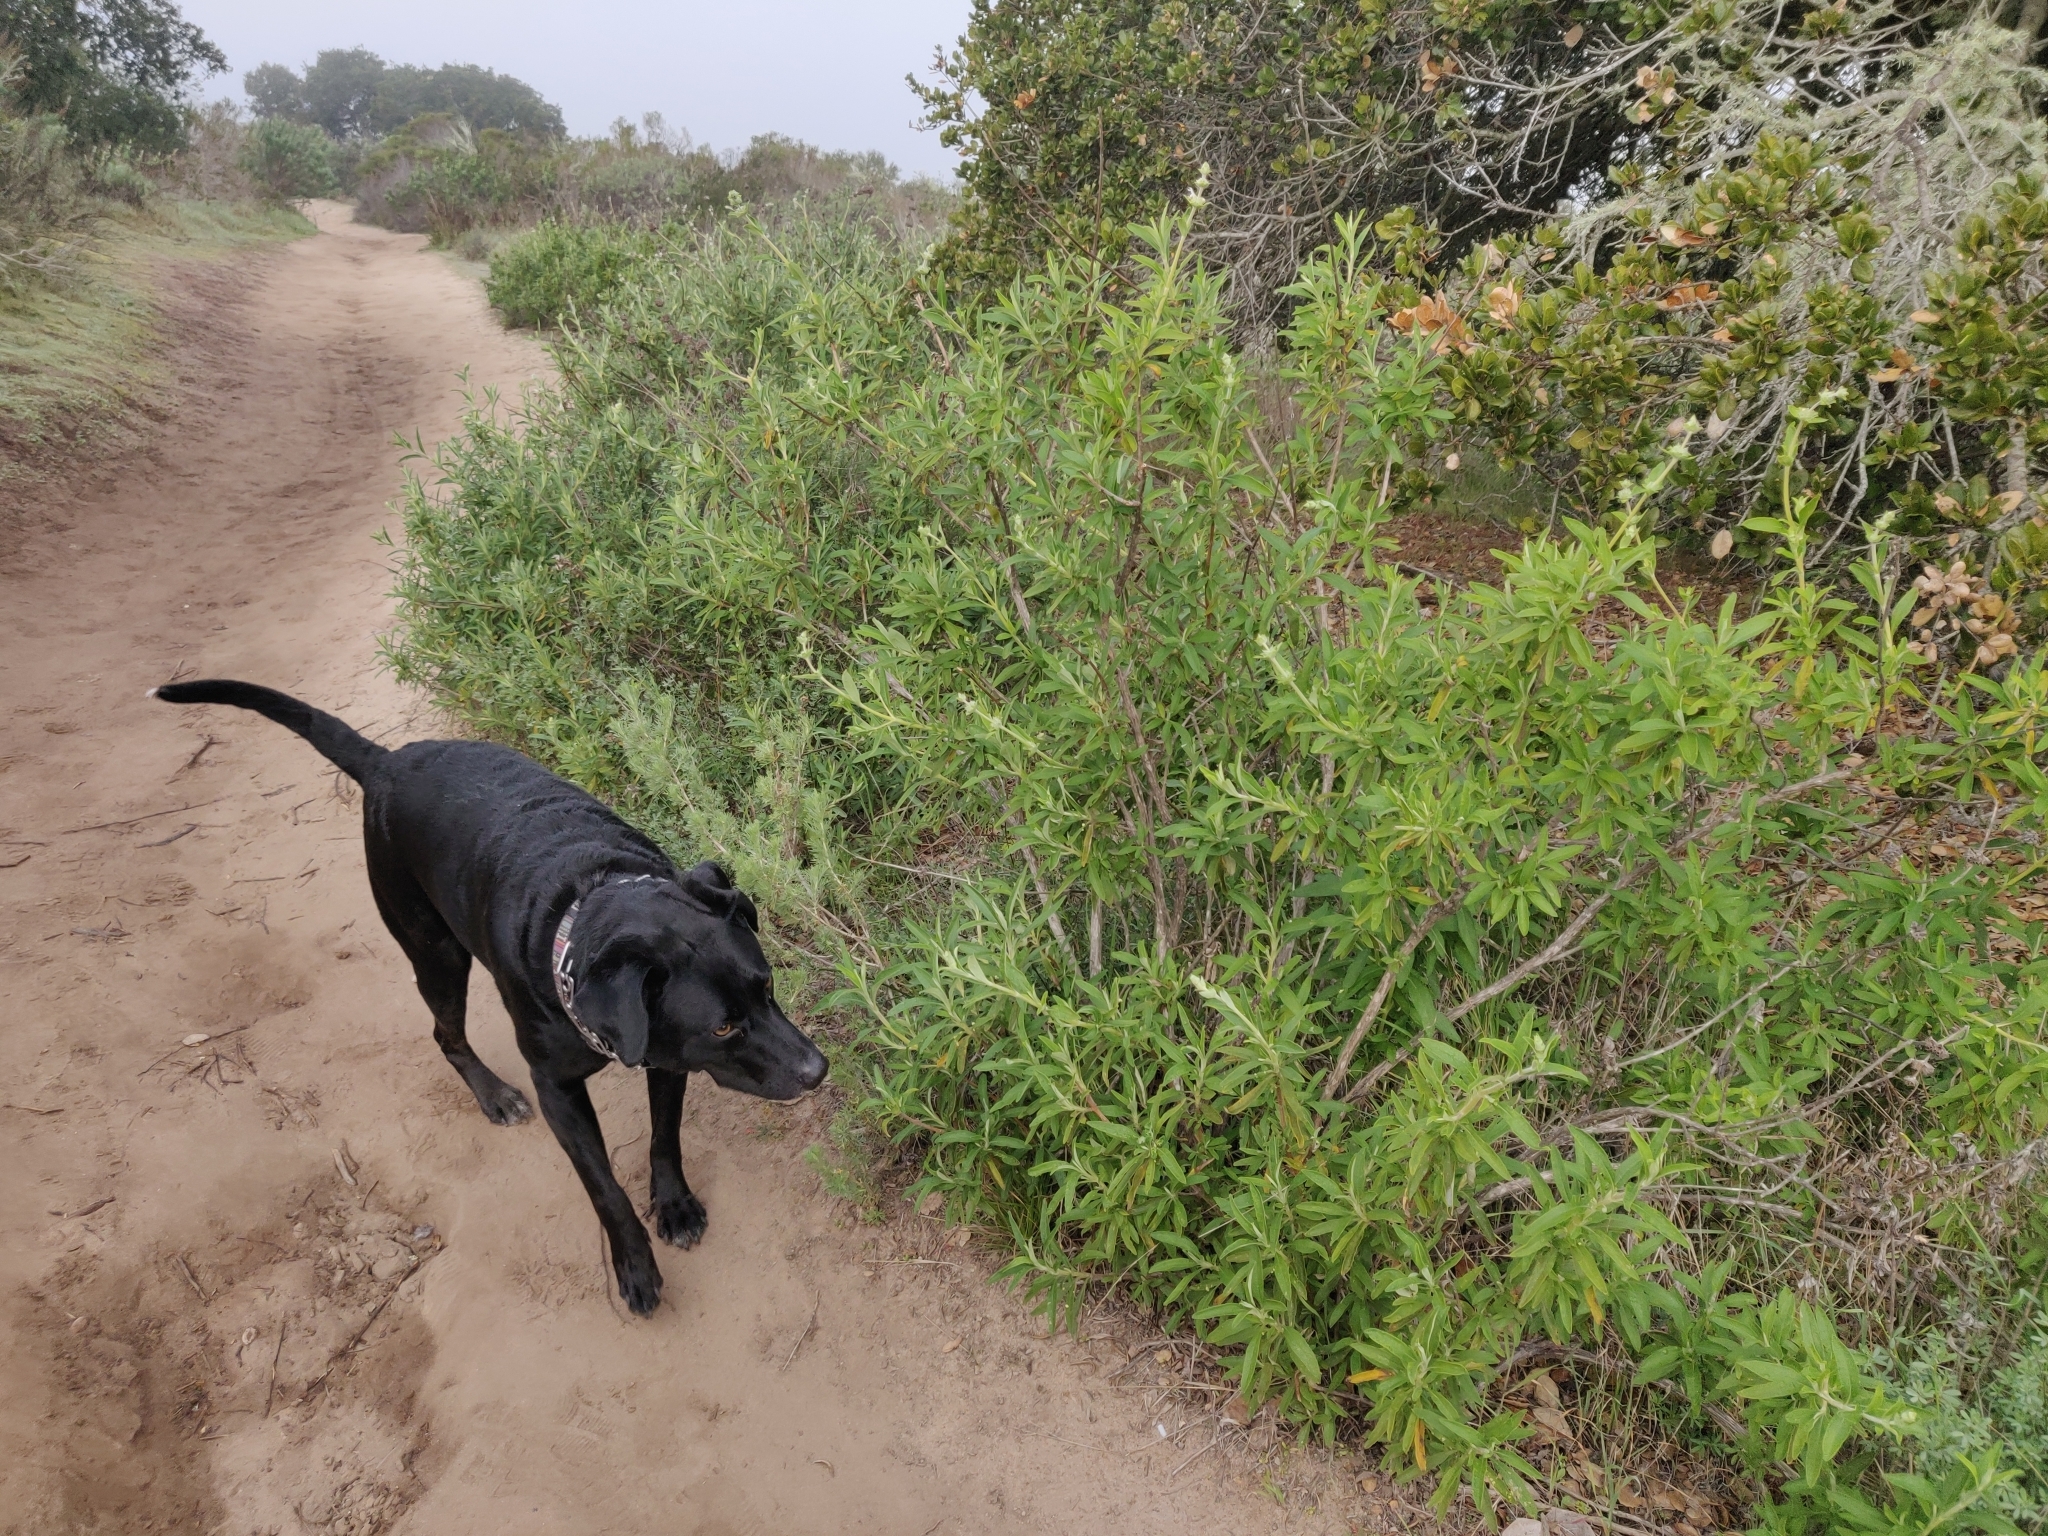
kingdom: Plantae
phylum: Tracheophyta
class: Magnoliopsida
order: Lamiales
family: Lamiaceae
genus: Salvia
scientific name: Salvia mellifera
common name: Black sage
